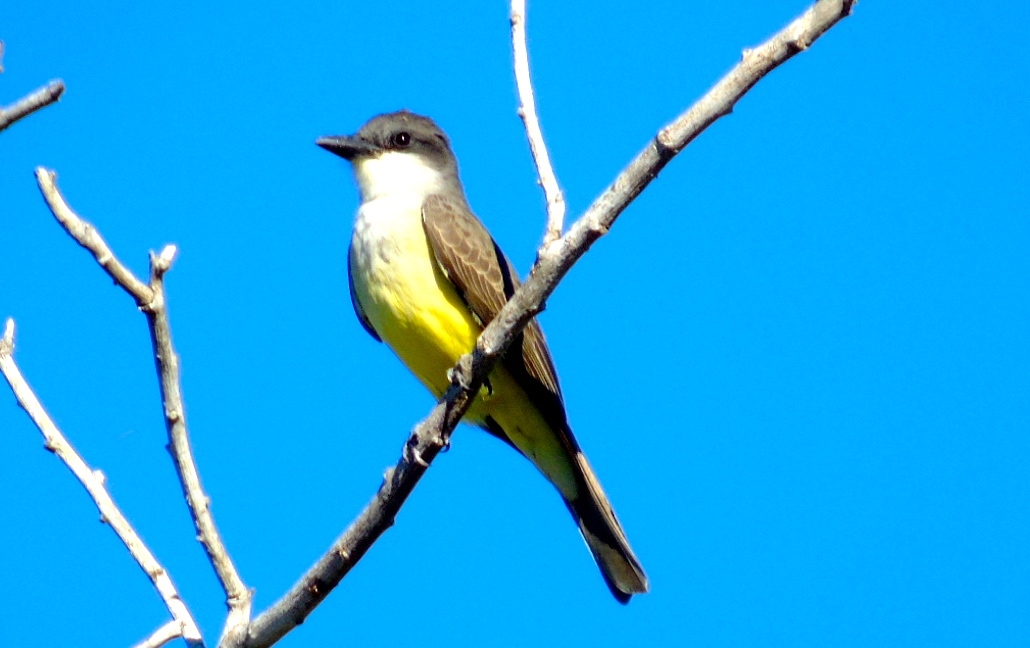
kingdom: Animalia
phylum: Chordata
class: Aves
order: Passeriformes
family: Tyrannidae
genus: Tyrannus
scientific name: Tyrannus crassirostris
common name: Thick-billed kingbird
